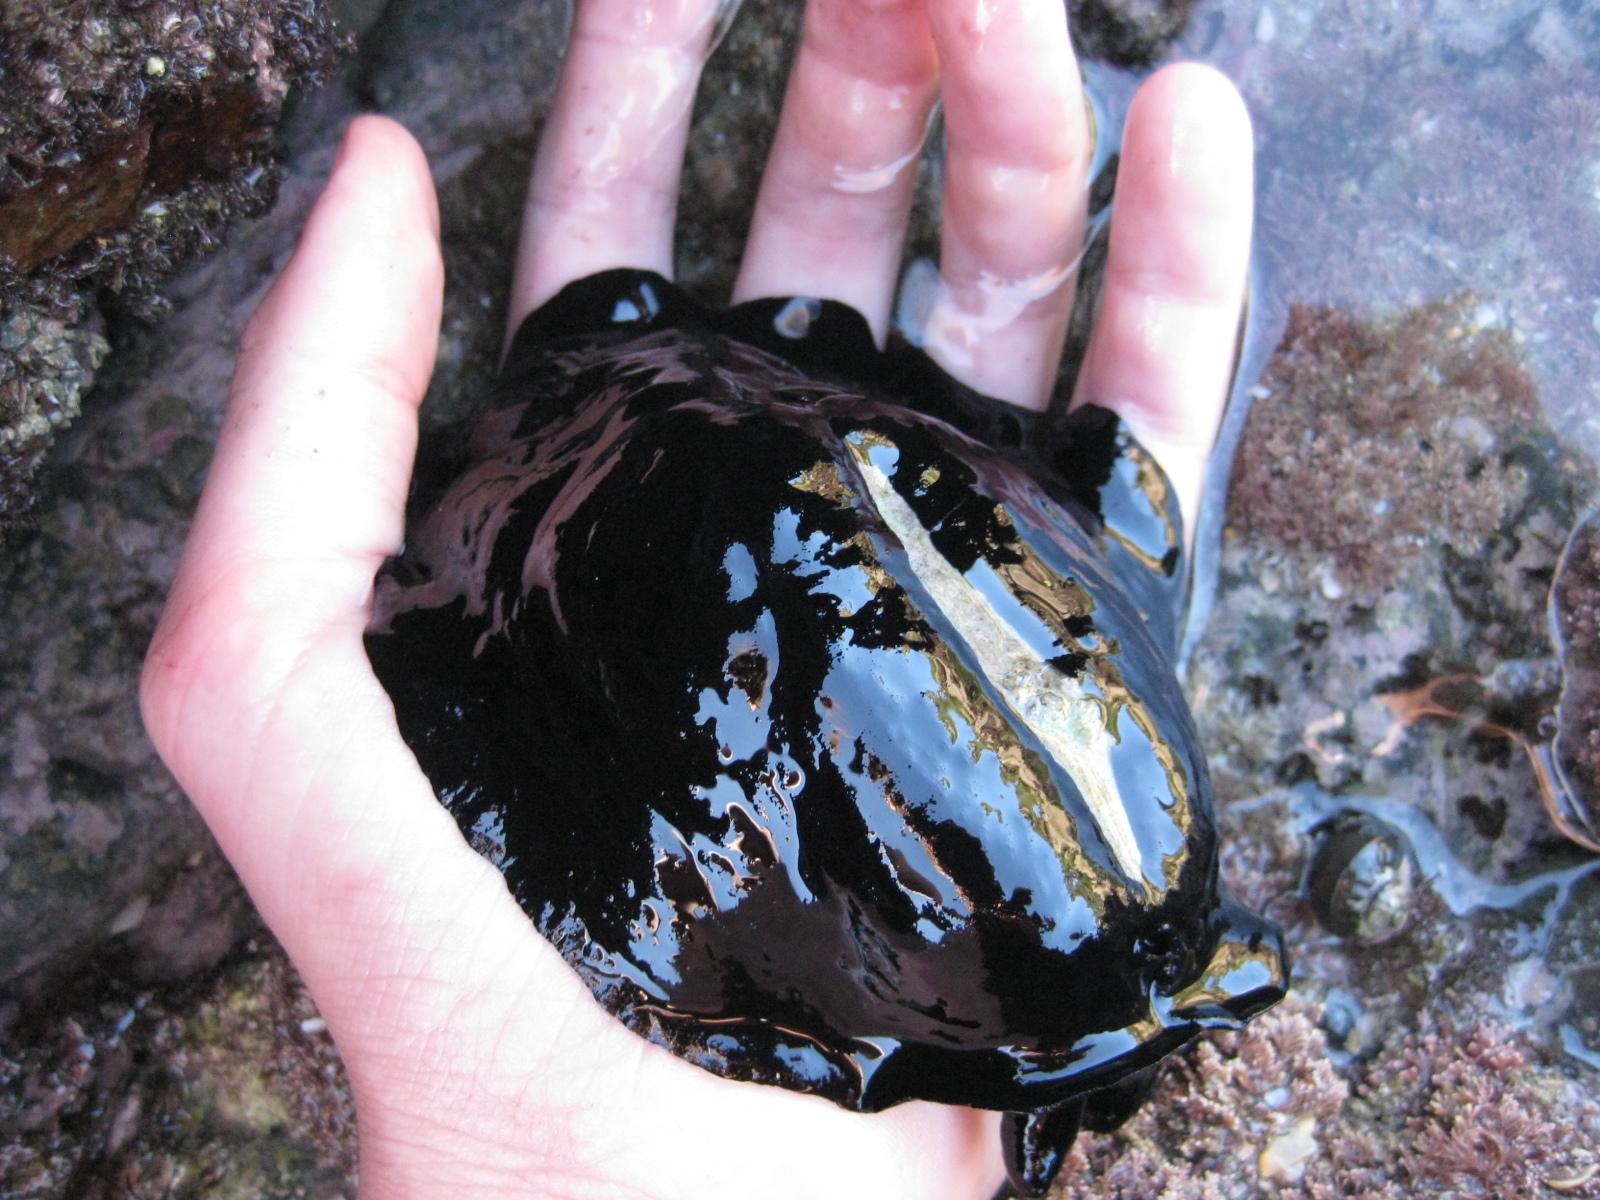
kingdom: Animalia
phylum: Mollusca
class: Gastropoda
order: Lepetellida
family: Fissurellidae
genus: Scutus
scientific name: Scutus breviculus
